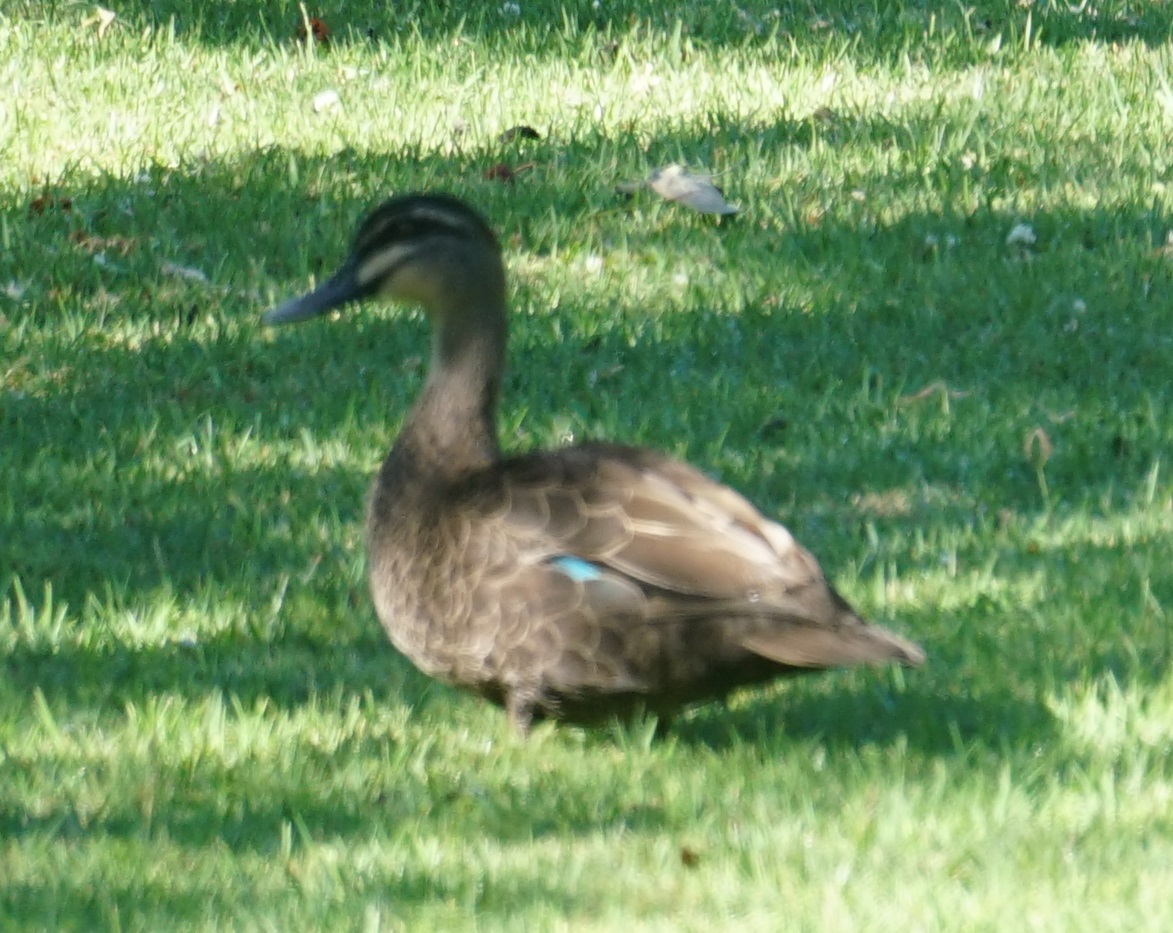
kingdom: Animalia
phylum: Chordata
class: Aves
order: Anseriformes
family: Anatidae
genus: Anas
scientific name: Anas superciliosa
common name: Pacific black duck
